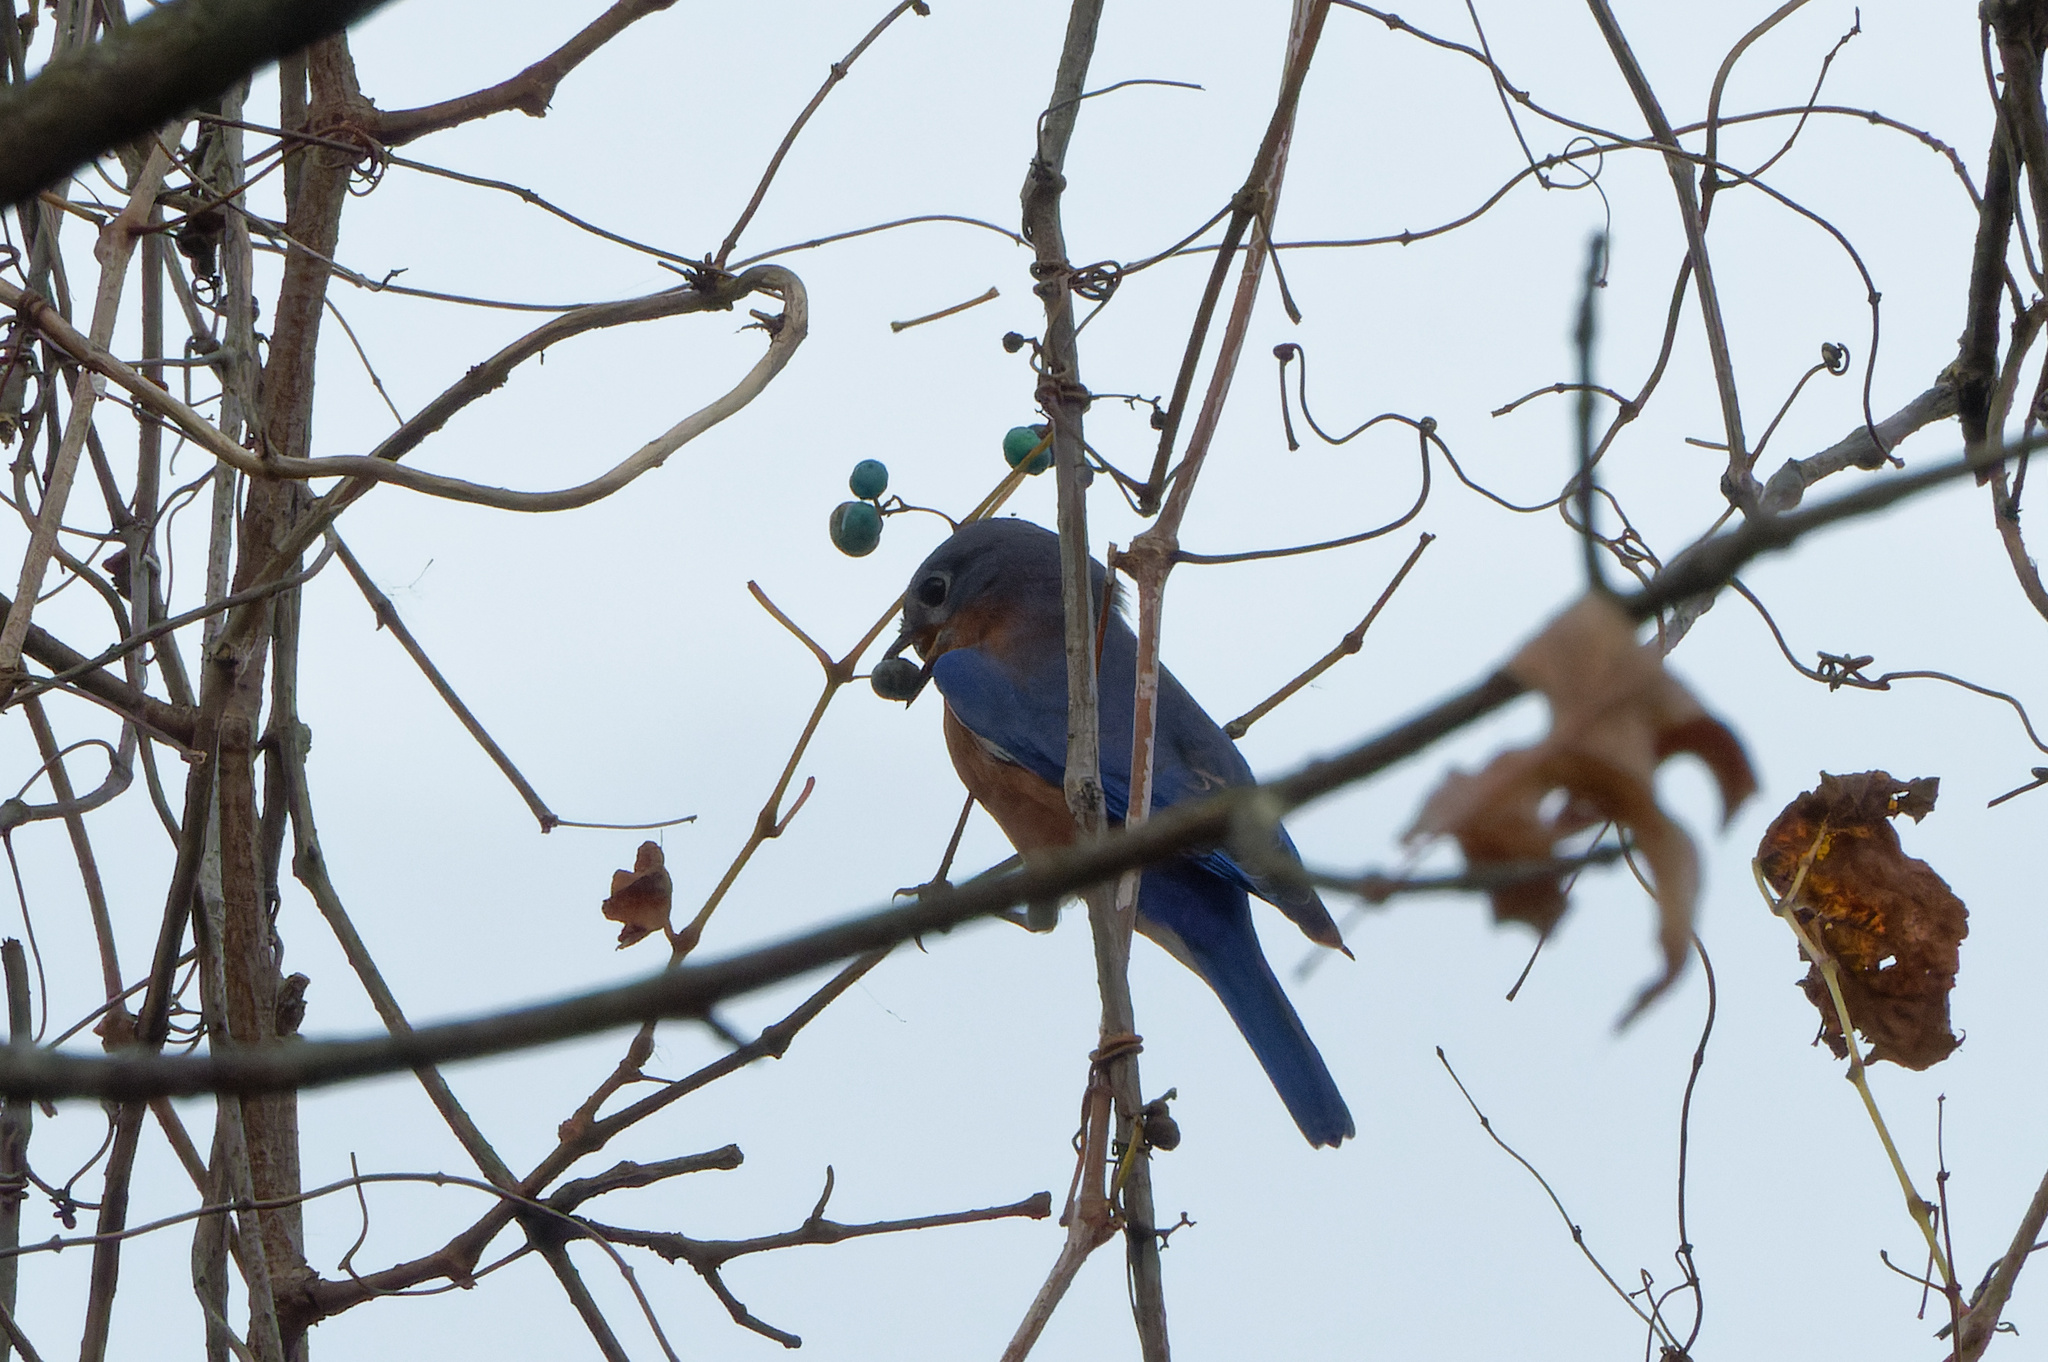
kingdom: Animalia
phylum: Chordata
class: Aves
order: Passeriformes
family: Turdidae
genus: Sialia
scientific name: Sialia sialis
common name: Eastern bluebird
